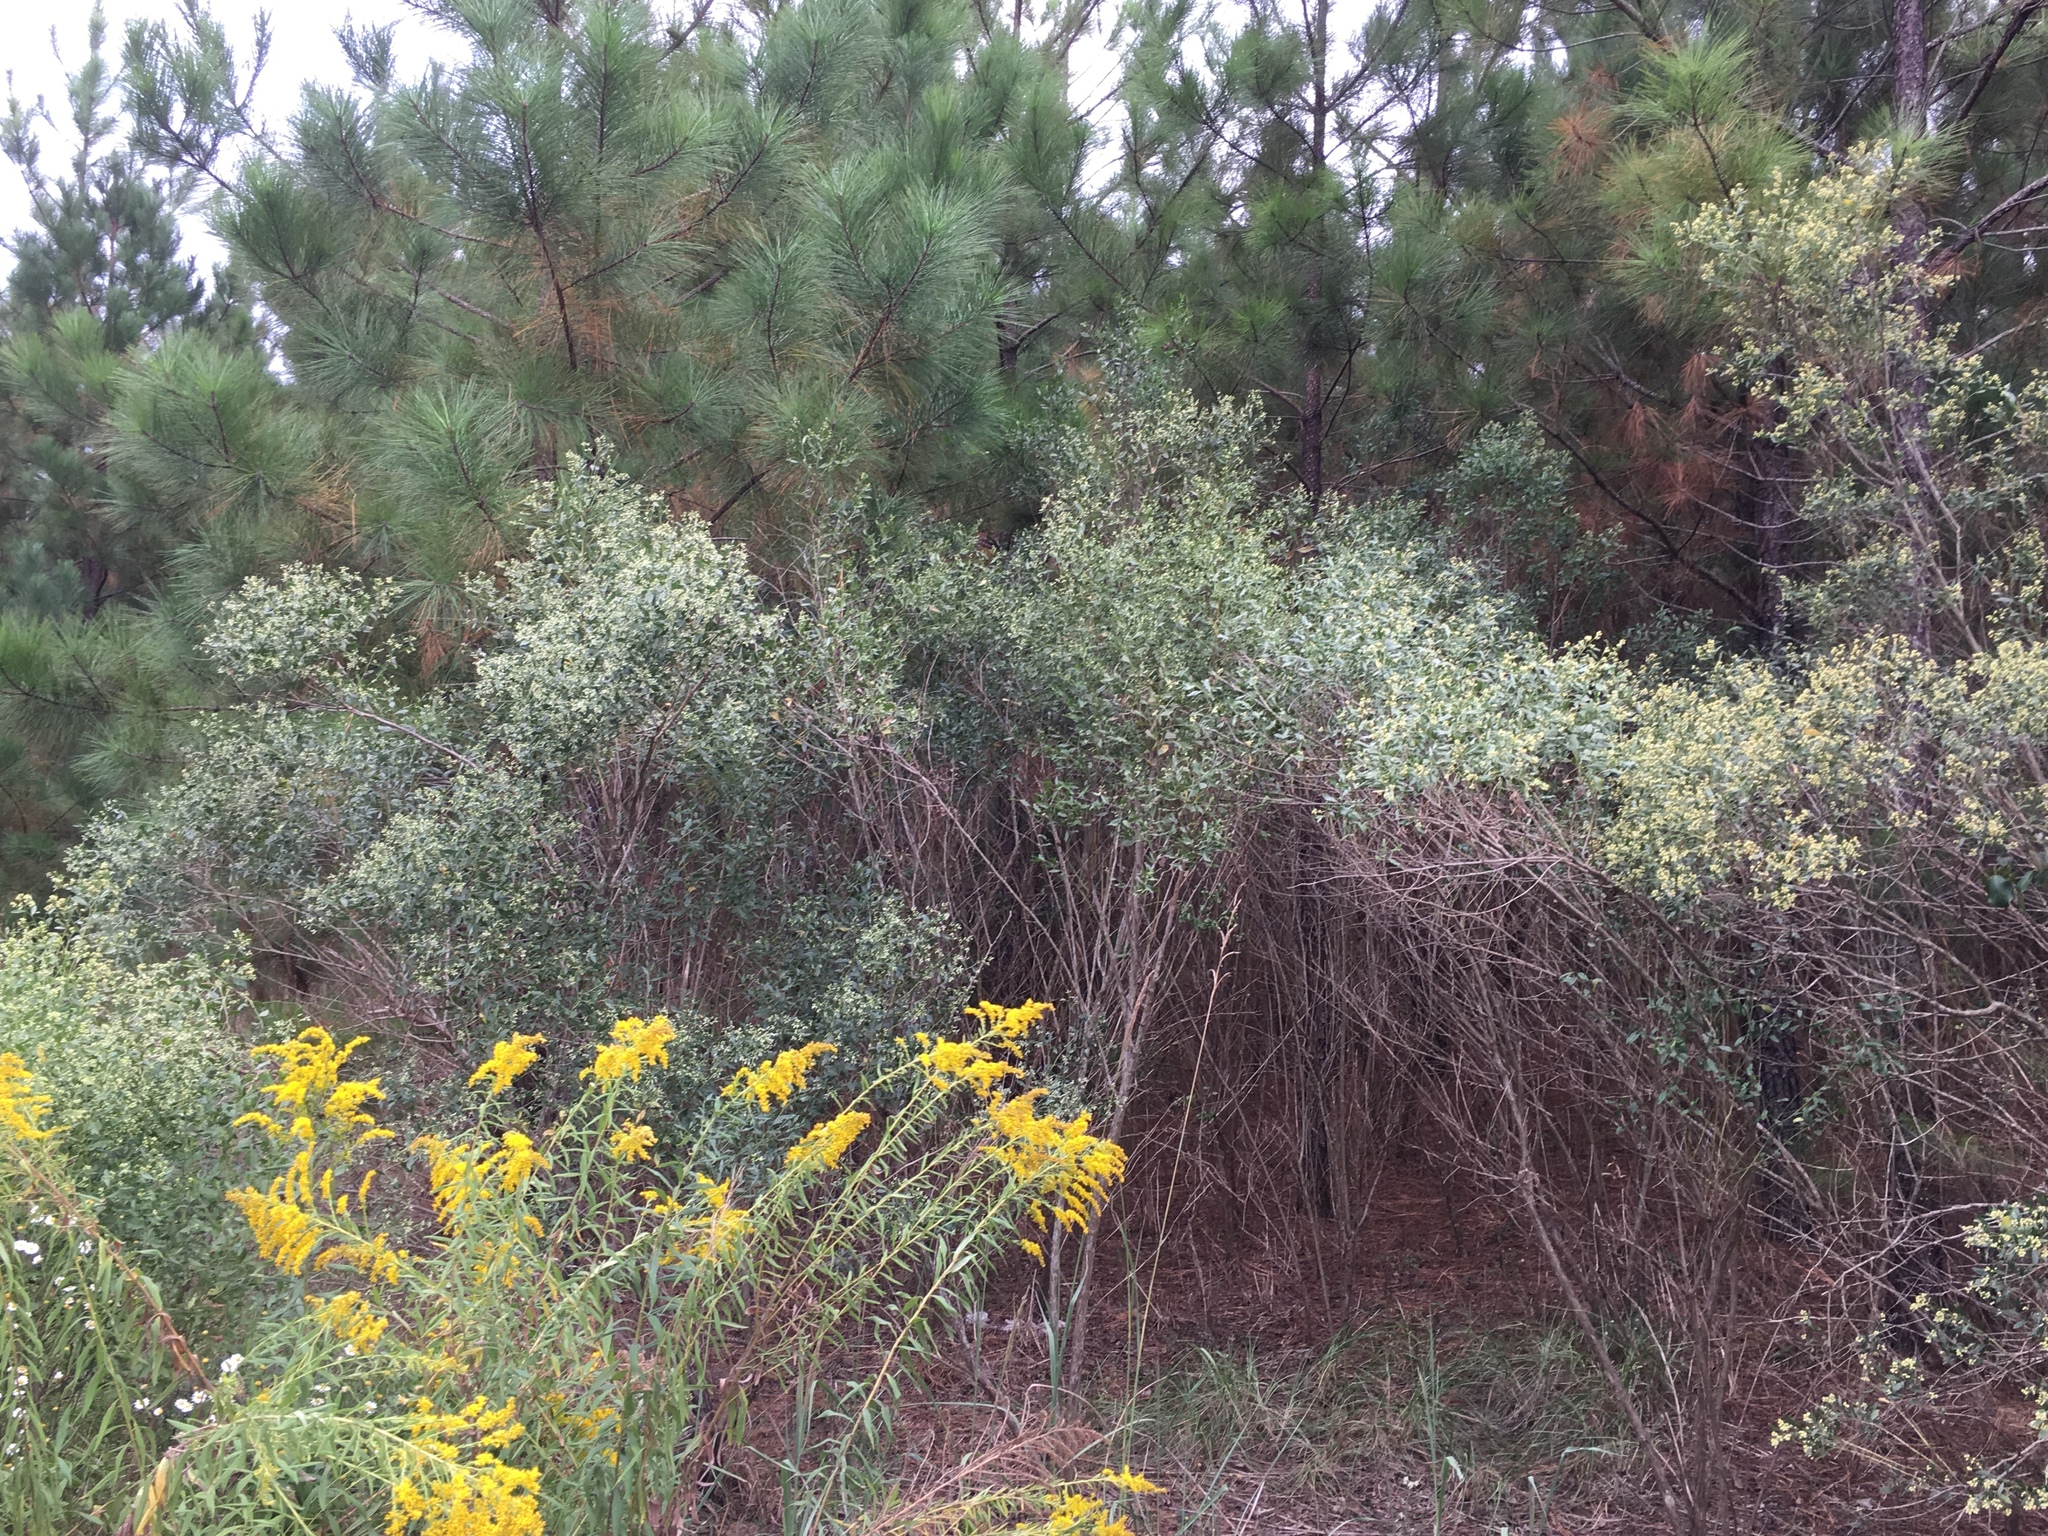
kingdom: Plantae
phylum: Tracheophyta
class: Magnoliopsida
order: Asterales
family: Asteraceae
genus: Baccharis
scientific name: Baccharis halimifolia
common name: Eastern baccharis
